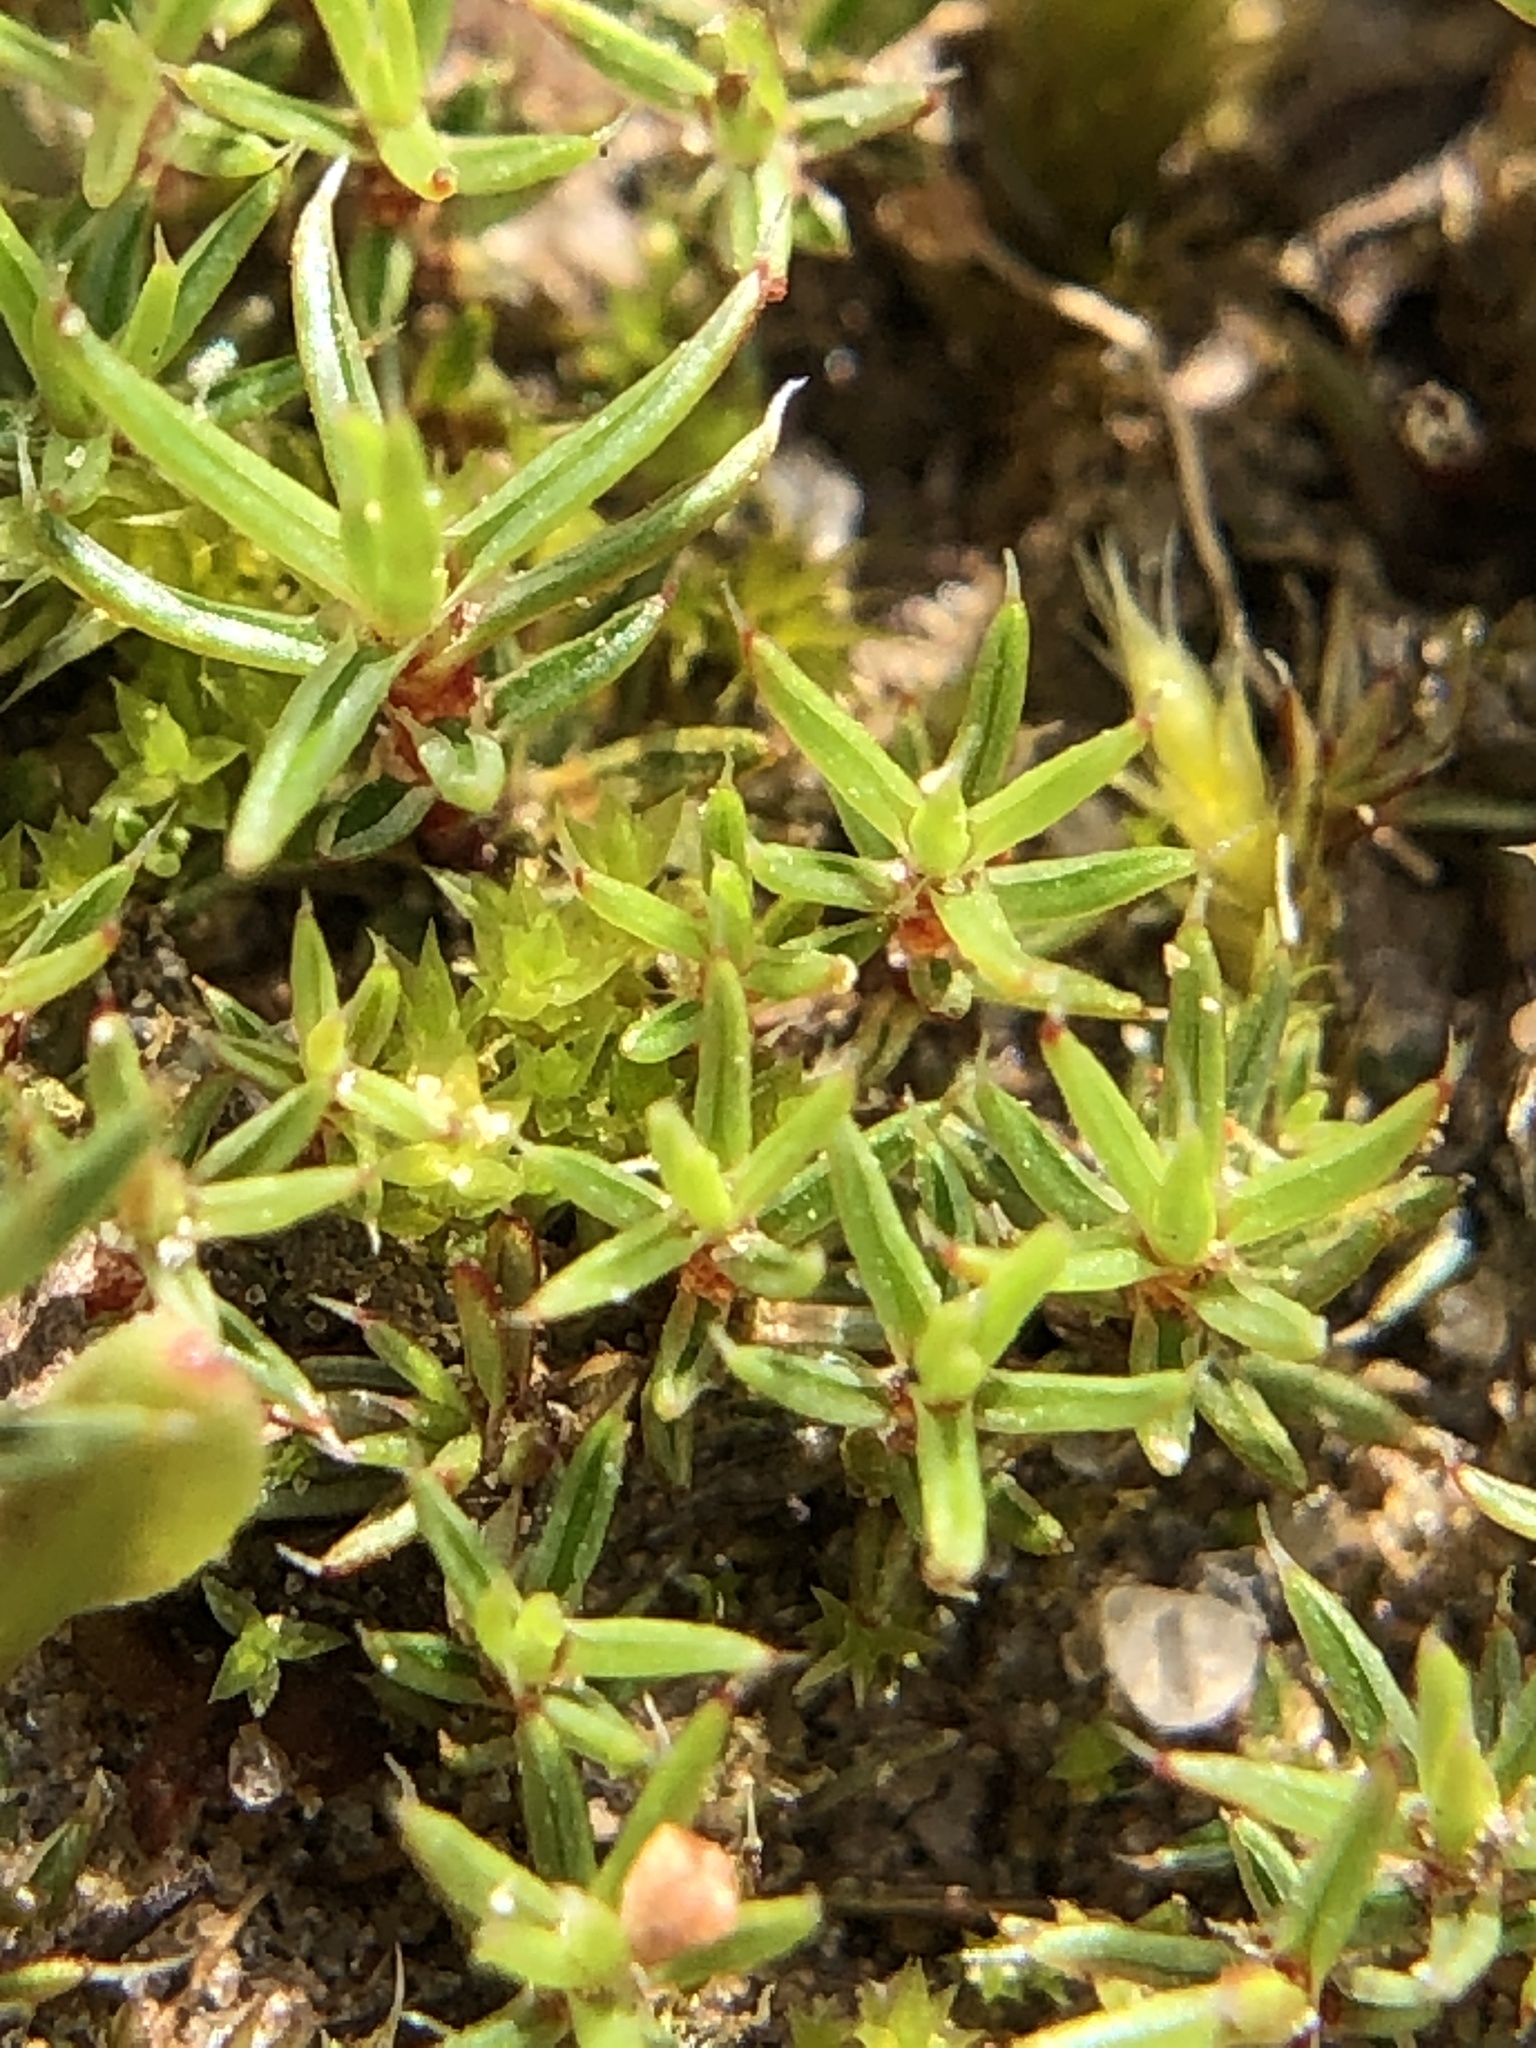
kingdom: Plantae
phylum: Bryophyta
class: Polytrichopsida
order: Polytrichales
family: Polytrichaceae
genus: Polytrichum
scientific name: Polytrichum piliferum
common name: Bristly haircap
